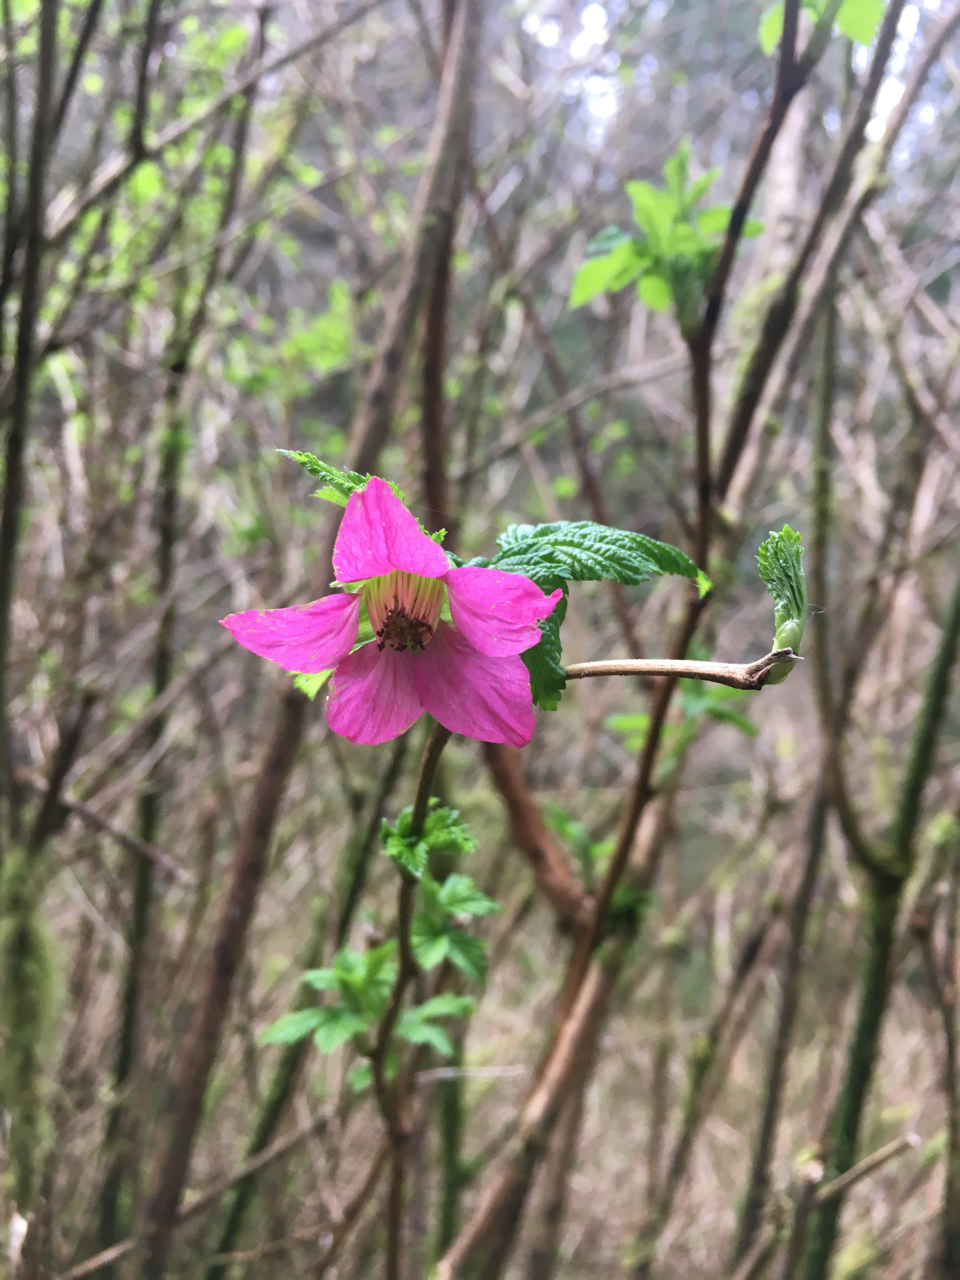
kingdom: Plantae
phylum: Tracheophyta
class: Magnoliopsida
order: Rosales
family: Rosaceae
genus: Rubus
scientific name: Rubus spectabilis
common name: Salmonberry
